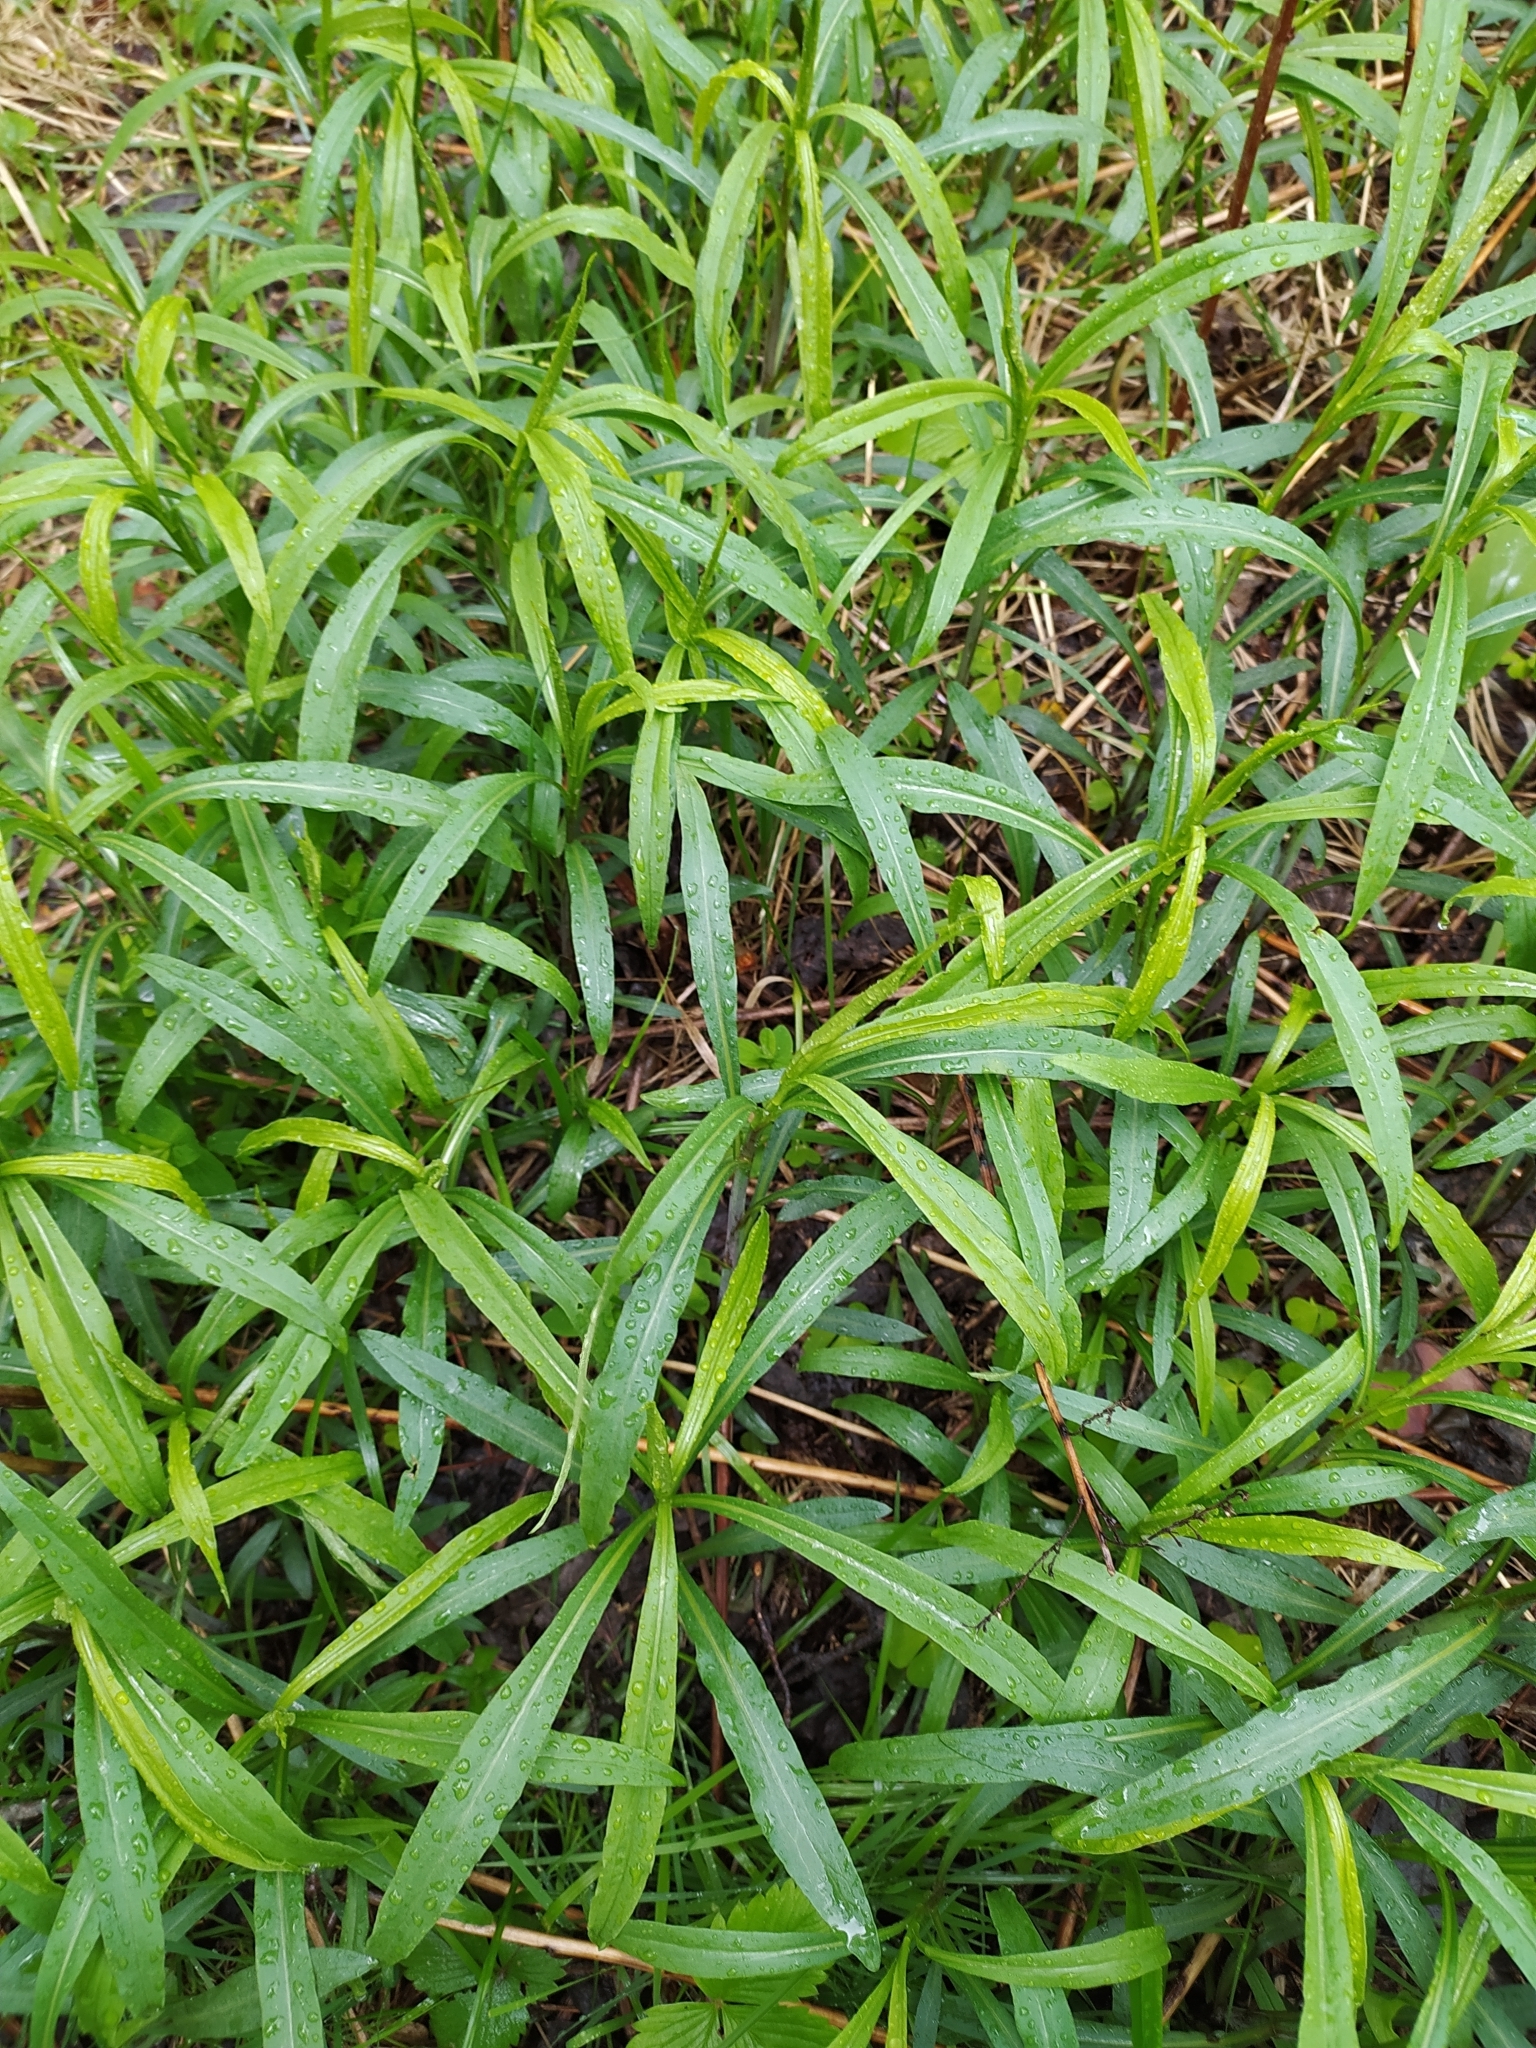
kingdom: Plantae
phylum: Tracheophyta
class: Magnoliopsida
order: Asterales
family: Asteraceae
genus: Solidago
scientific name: Solidago gigantea
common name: Giant goldenrod
